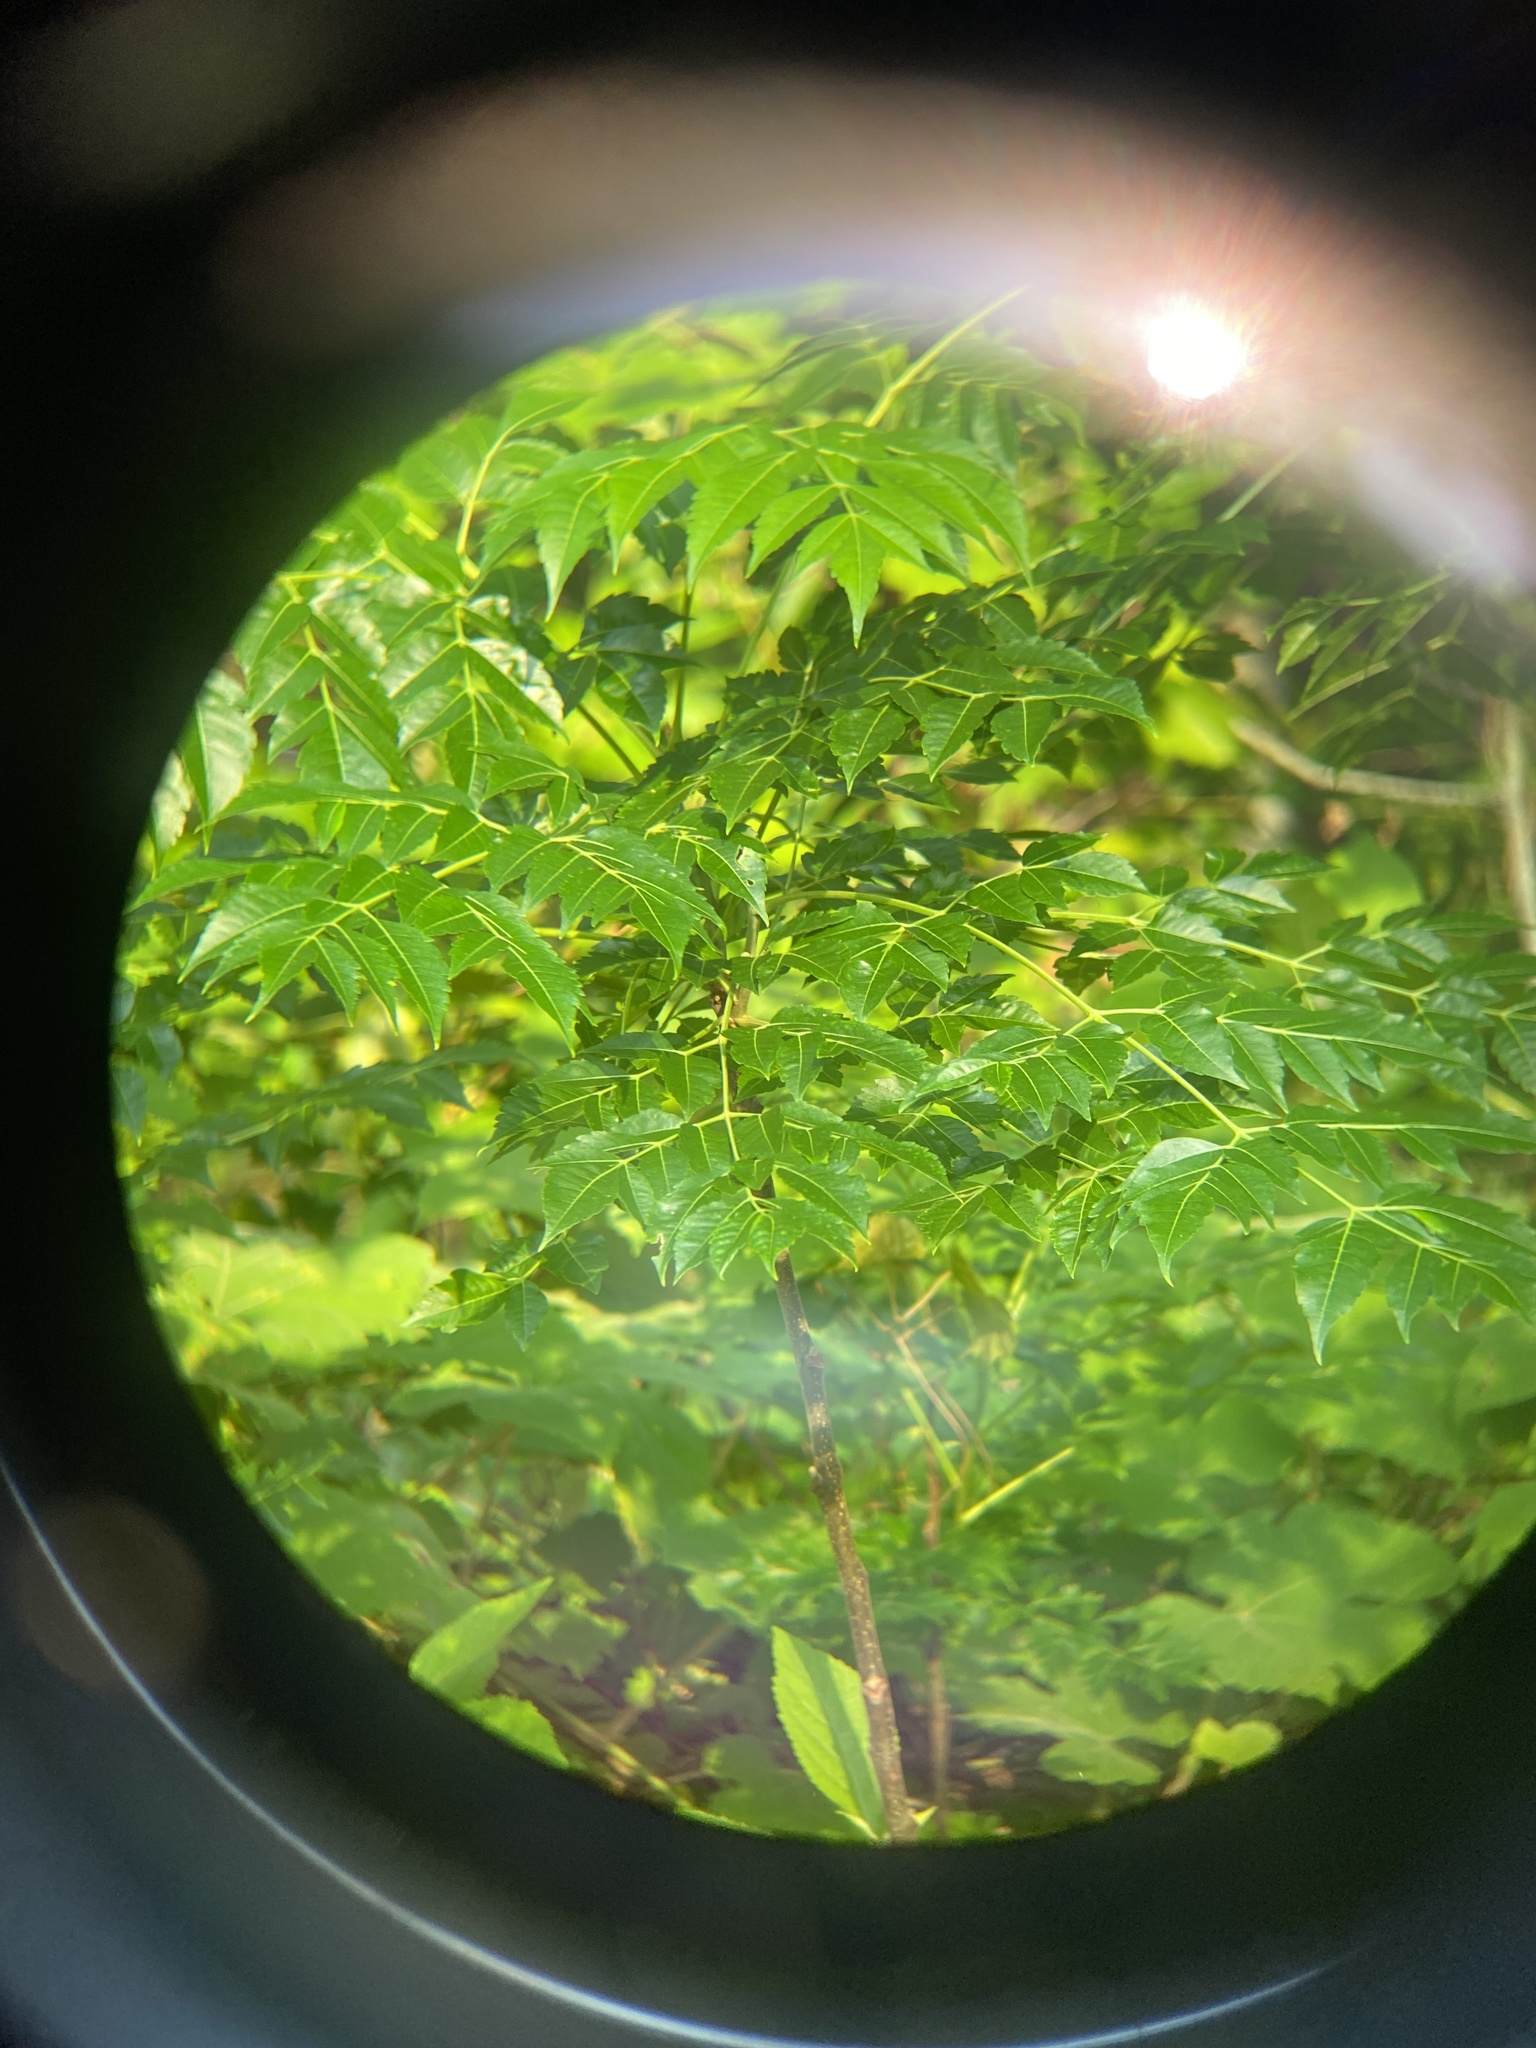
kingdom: Plantae
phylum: Tracheophyta
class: Magnoliopsida
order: Sapindales
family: Meliaceae
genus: Melia
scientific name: Melia azedarach
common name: Chinaberrytree
